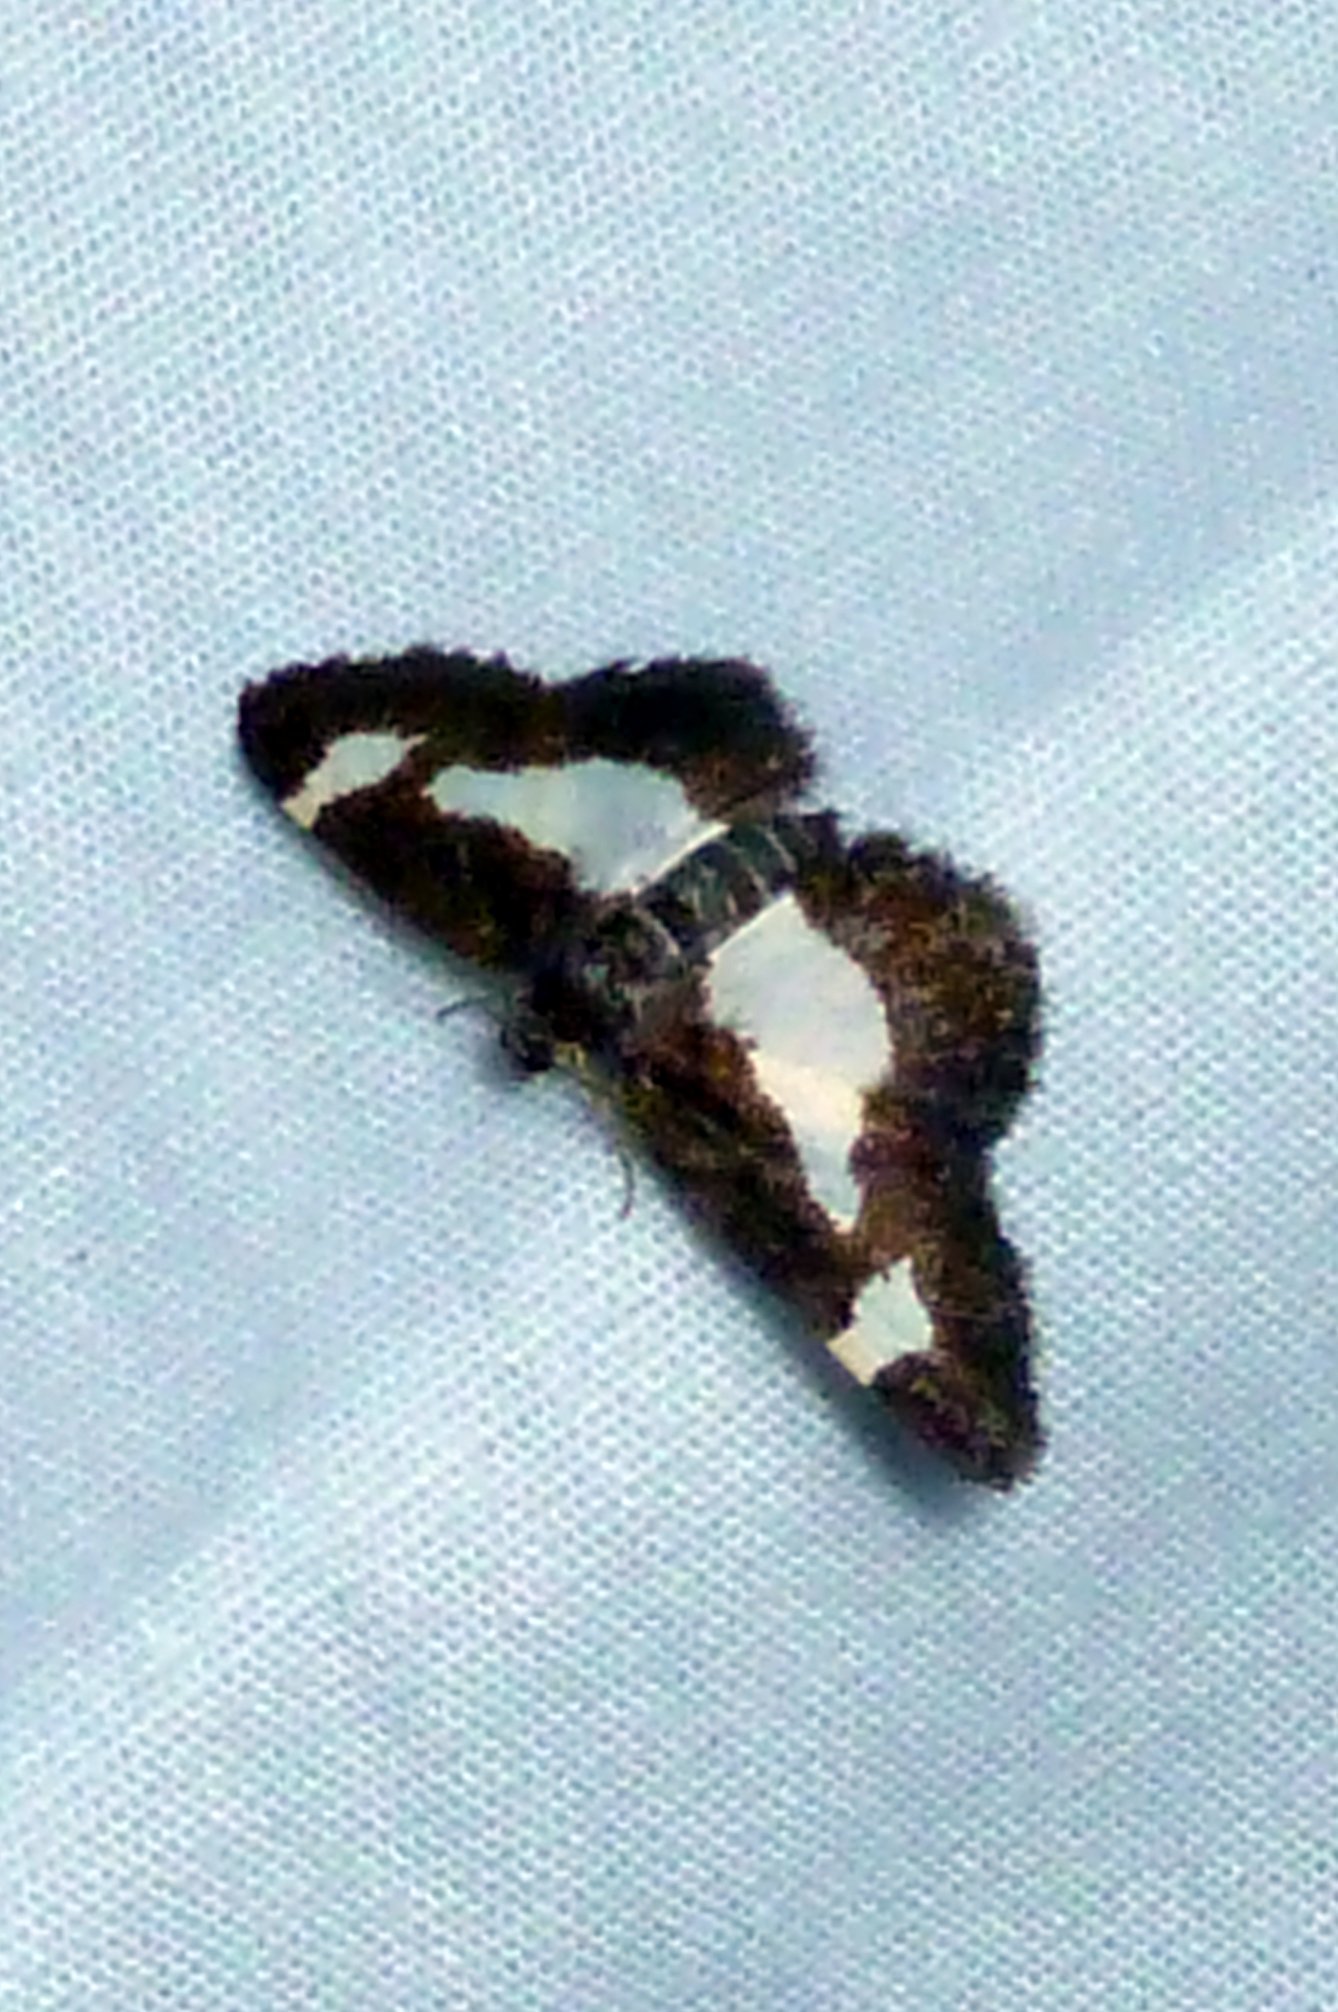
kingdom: Animalia
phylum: Arthropoda
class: Insecta
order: Lepidoptera
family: Geometridae
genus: Heliomata
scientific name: Heliomata cycladata
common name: Common spring moth
